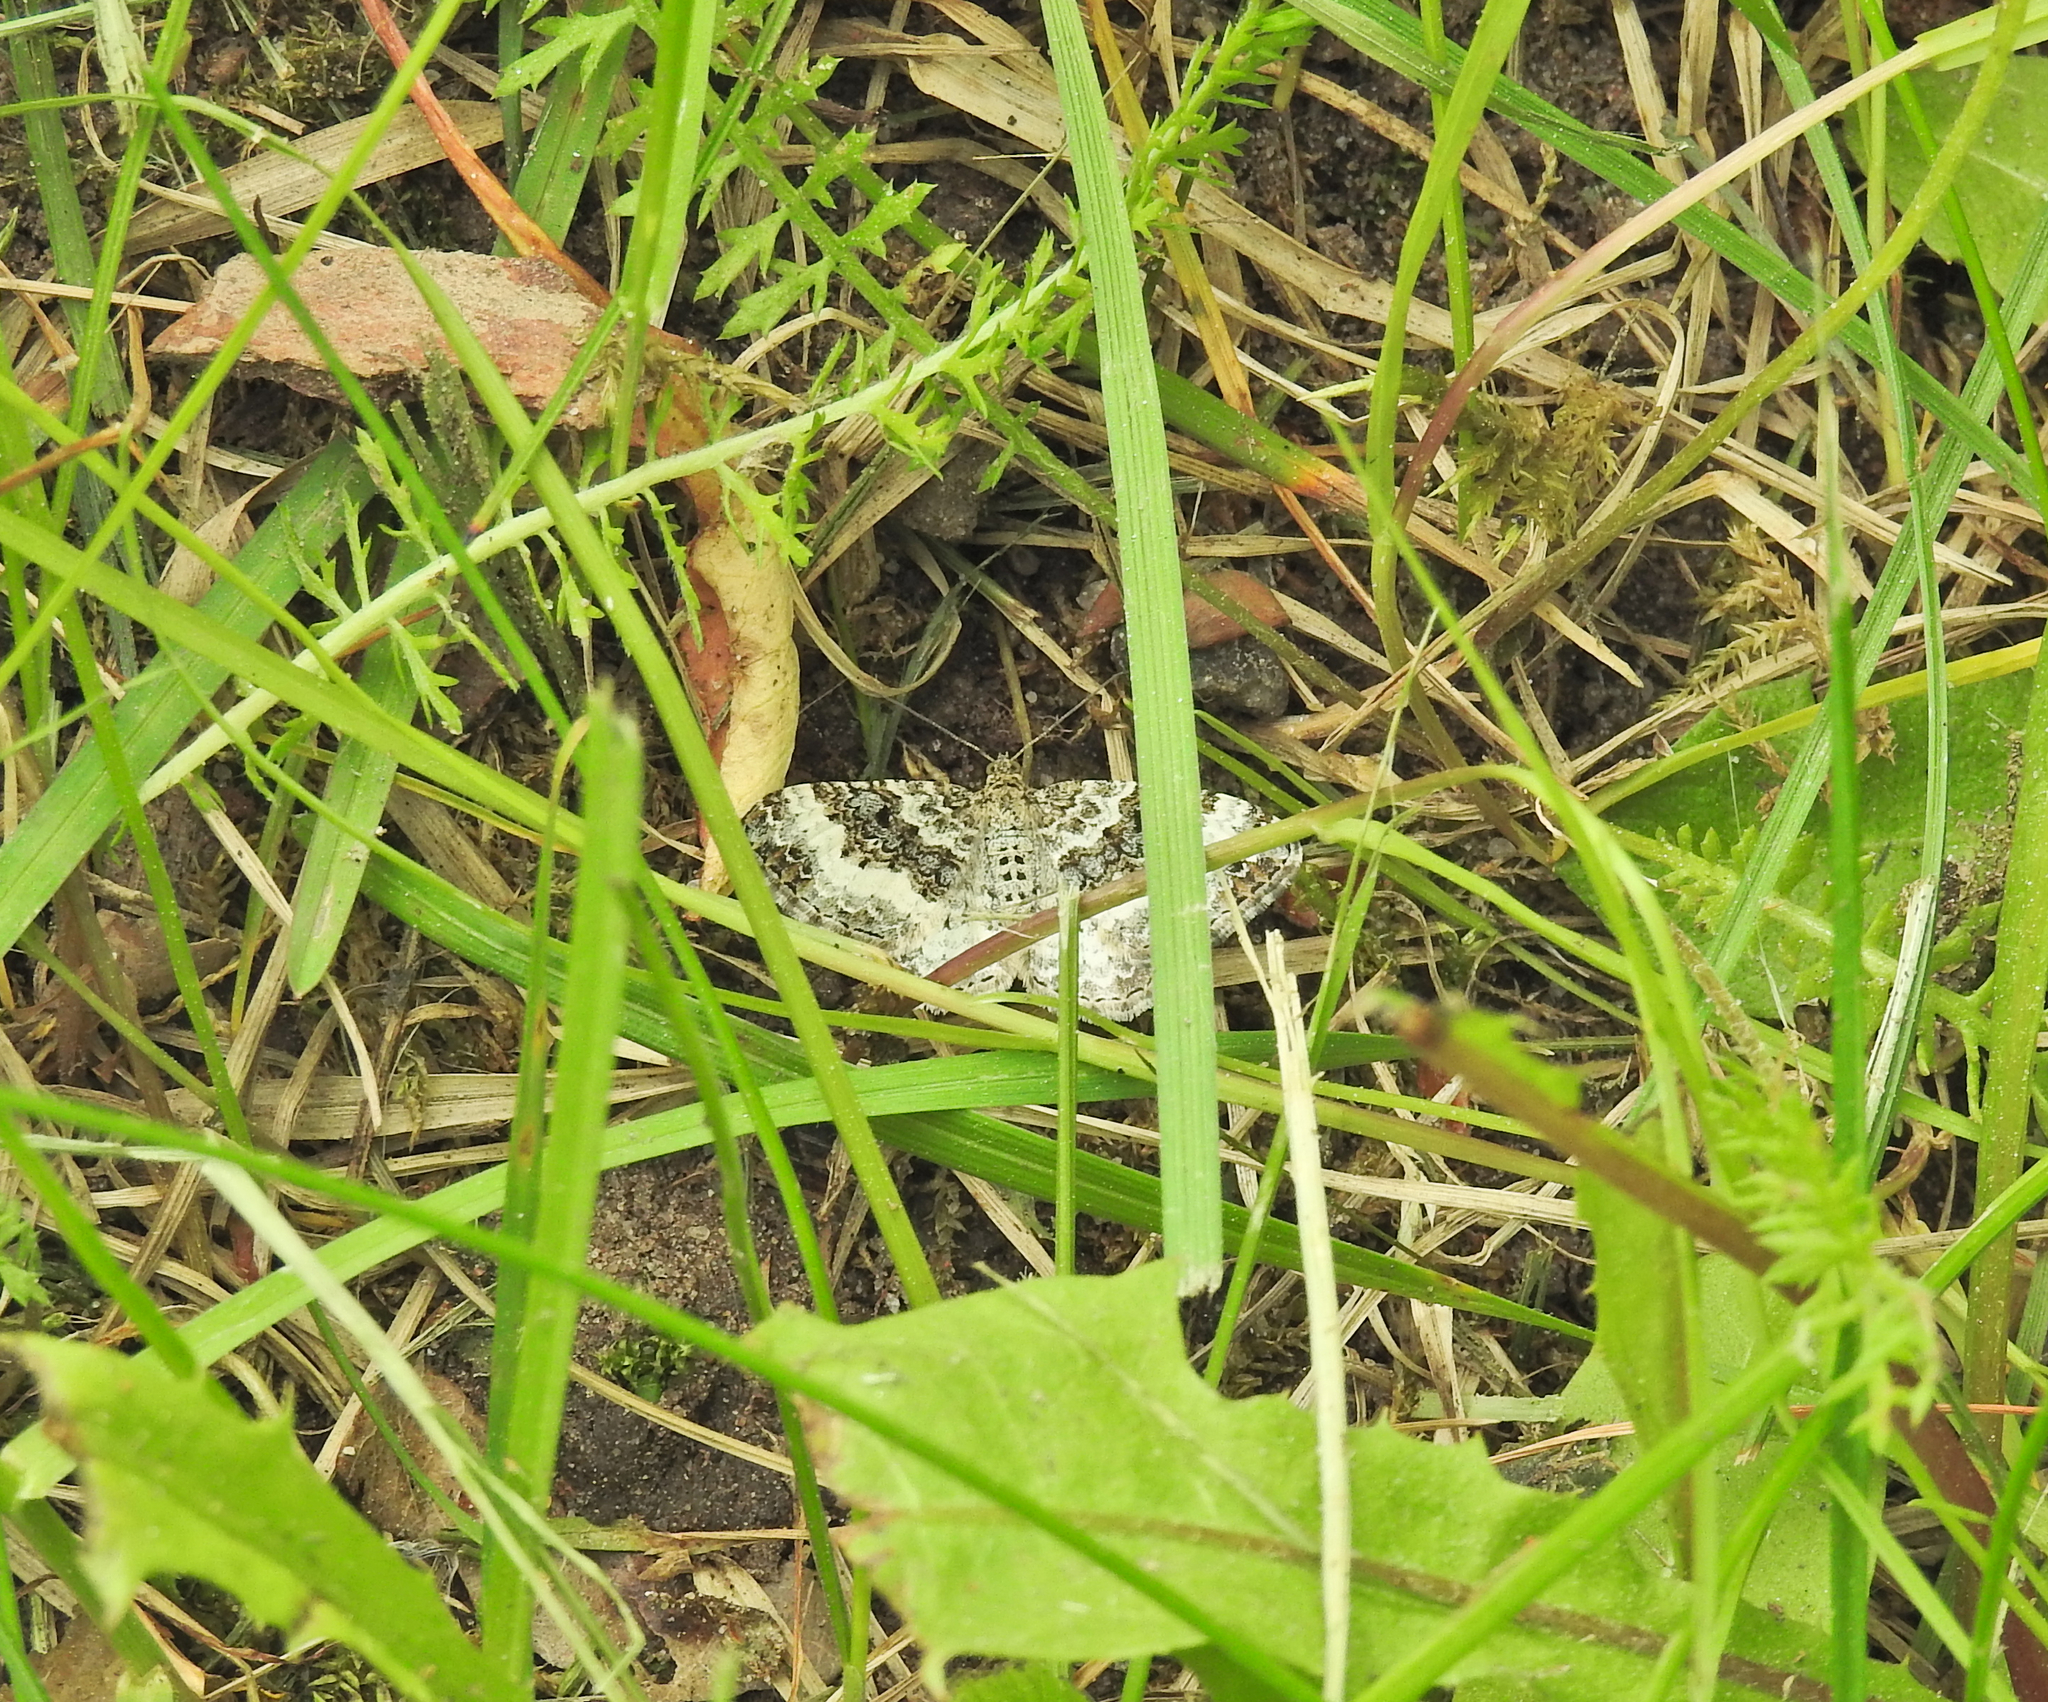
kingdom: Animalia
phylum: Arthropoda
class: Insecta
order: Lepidoptera
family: Geometridae
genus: Epirrhoe
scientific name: Epirrhoe alternata
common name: Common carpet
